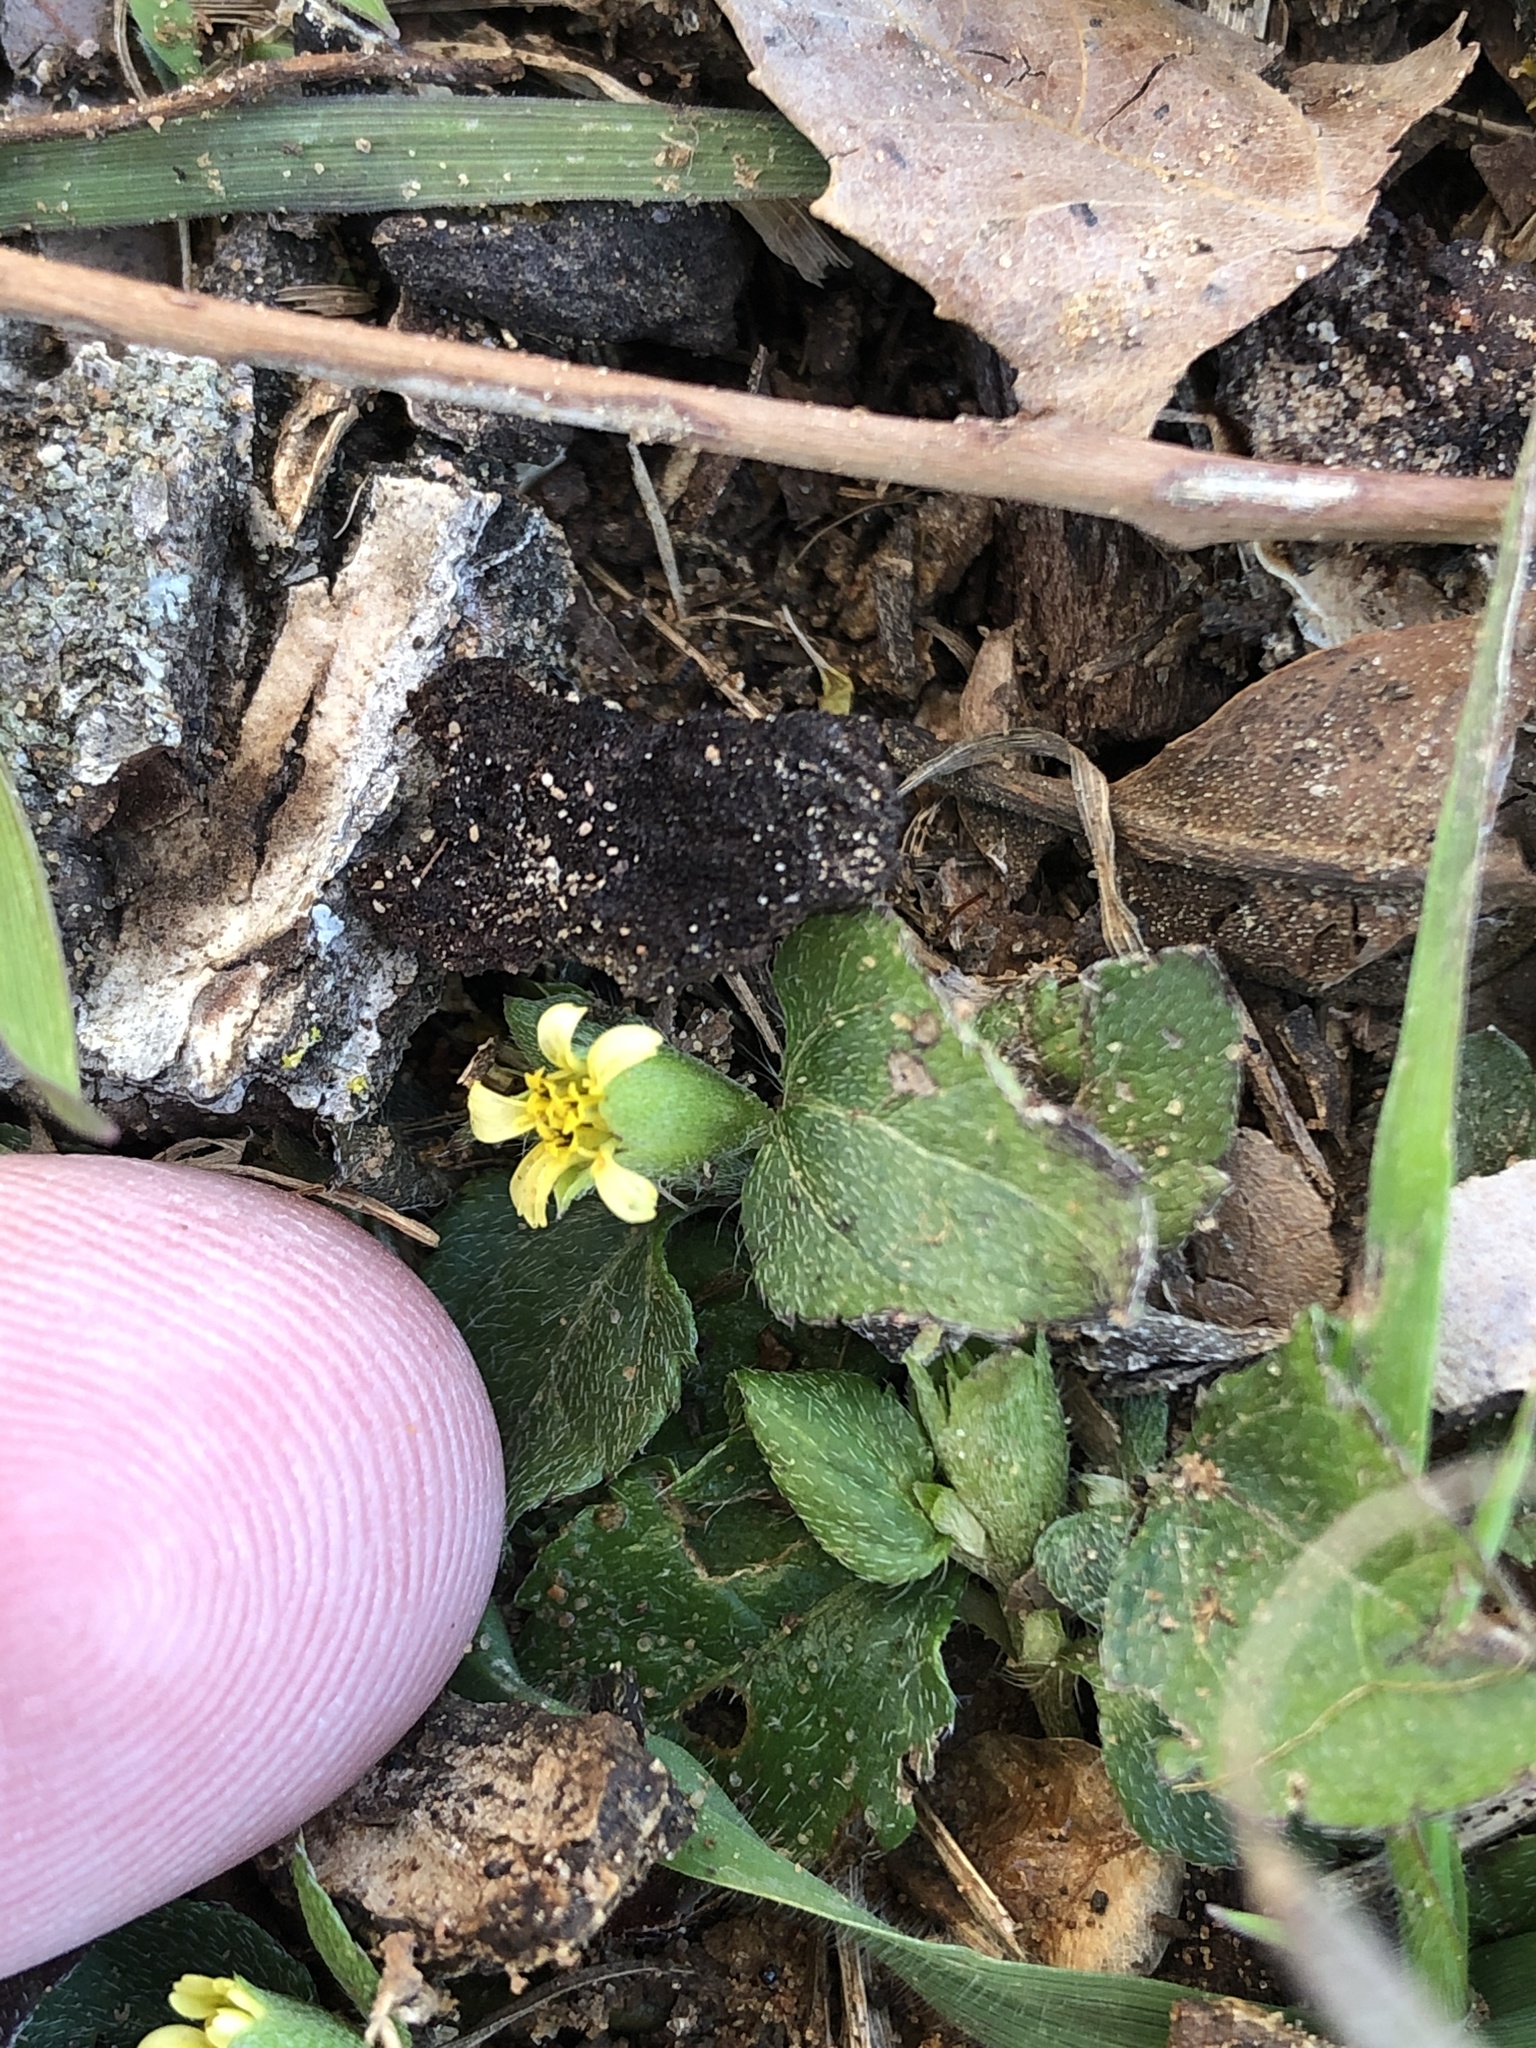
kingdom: Plantae
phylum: Tracheophyta
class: Magnoliopsida
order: Asterales
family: Asteraceae
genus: Calyptocarpus
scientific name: Calyptocarpus vialis
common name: Straggler daisy
